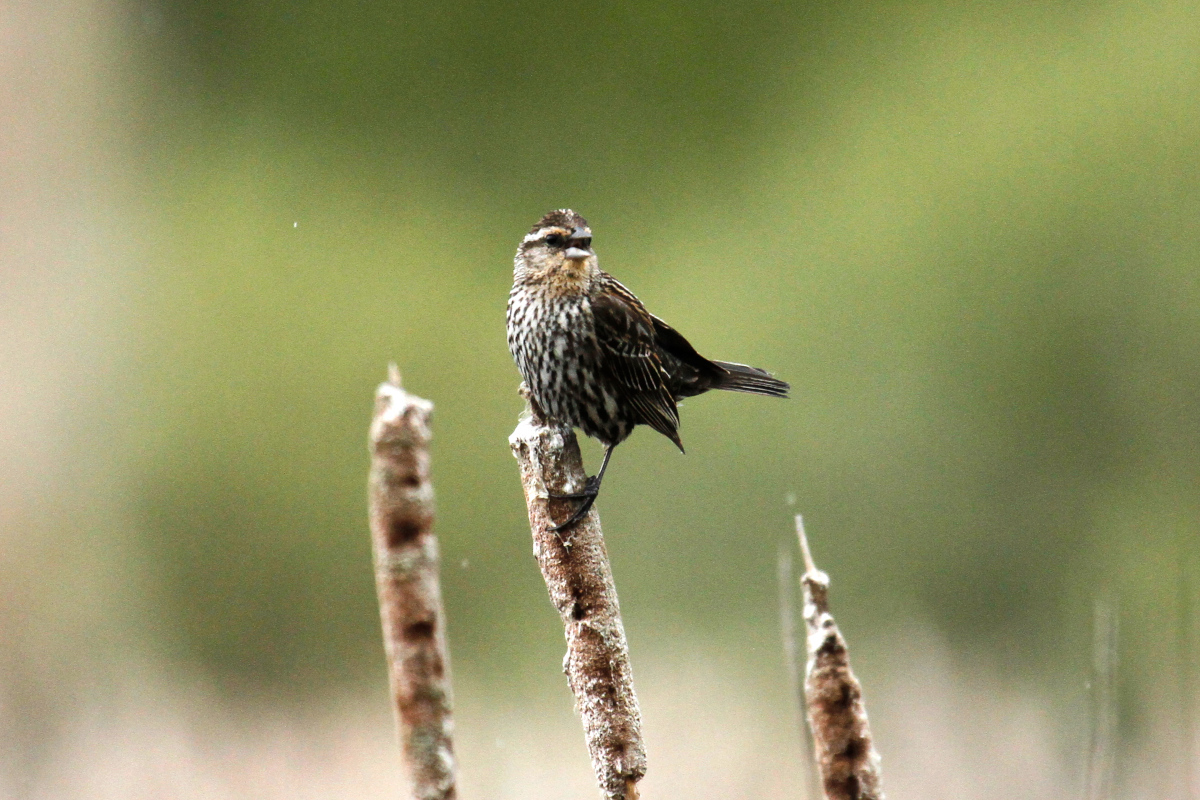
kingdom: Animalia
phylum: Chordata
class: Aves
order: Passeriformes
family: Icteridae
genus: Agelaius
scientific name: Agelaius phoeniceus
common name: Red-winged blackbird
